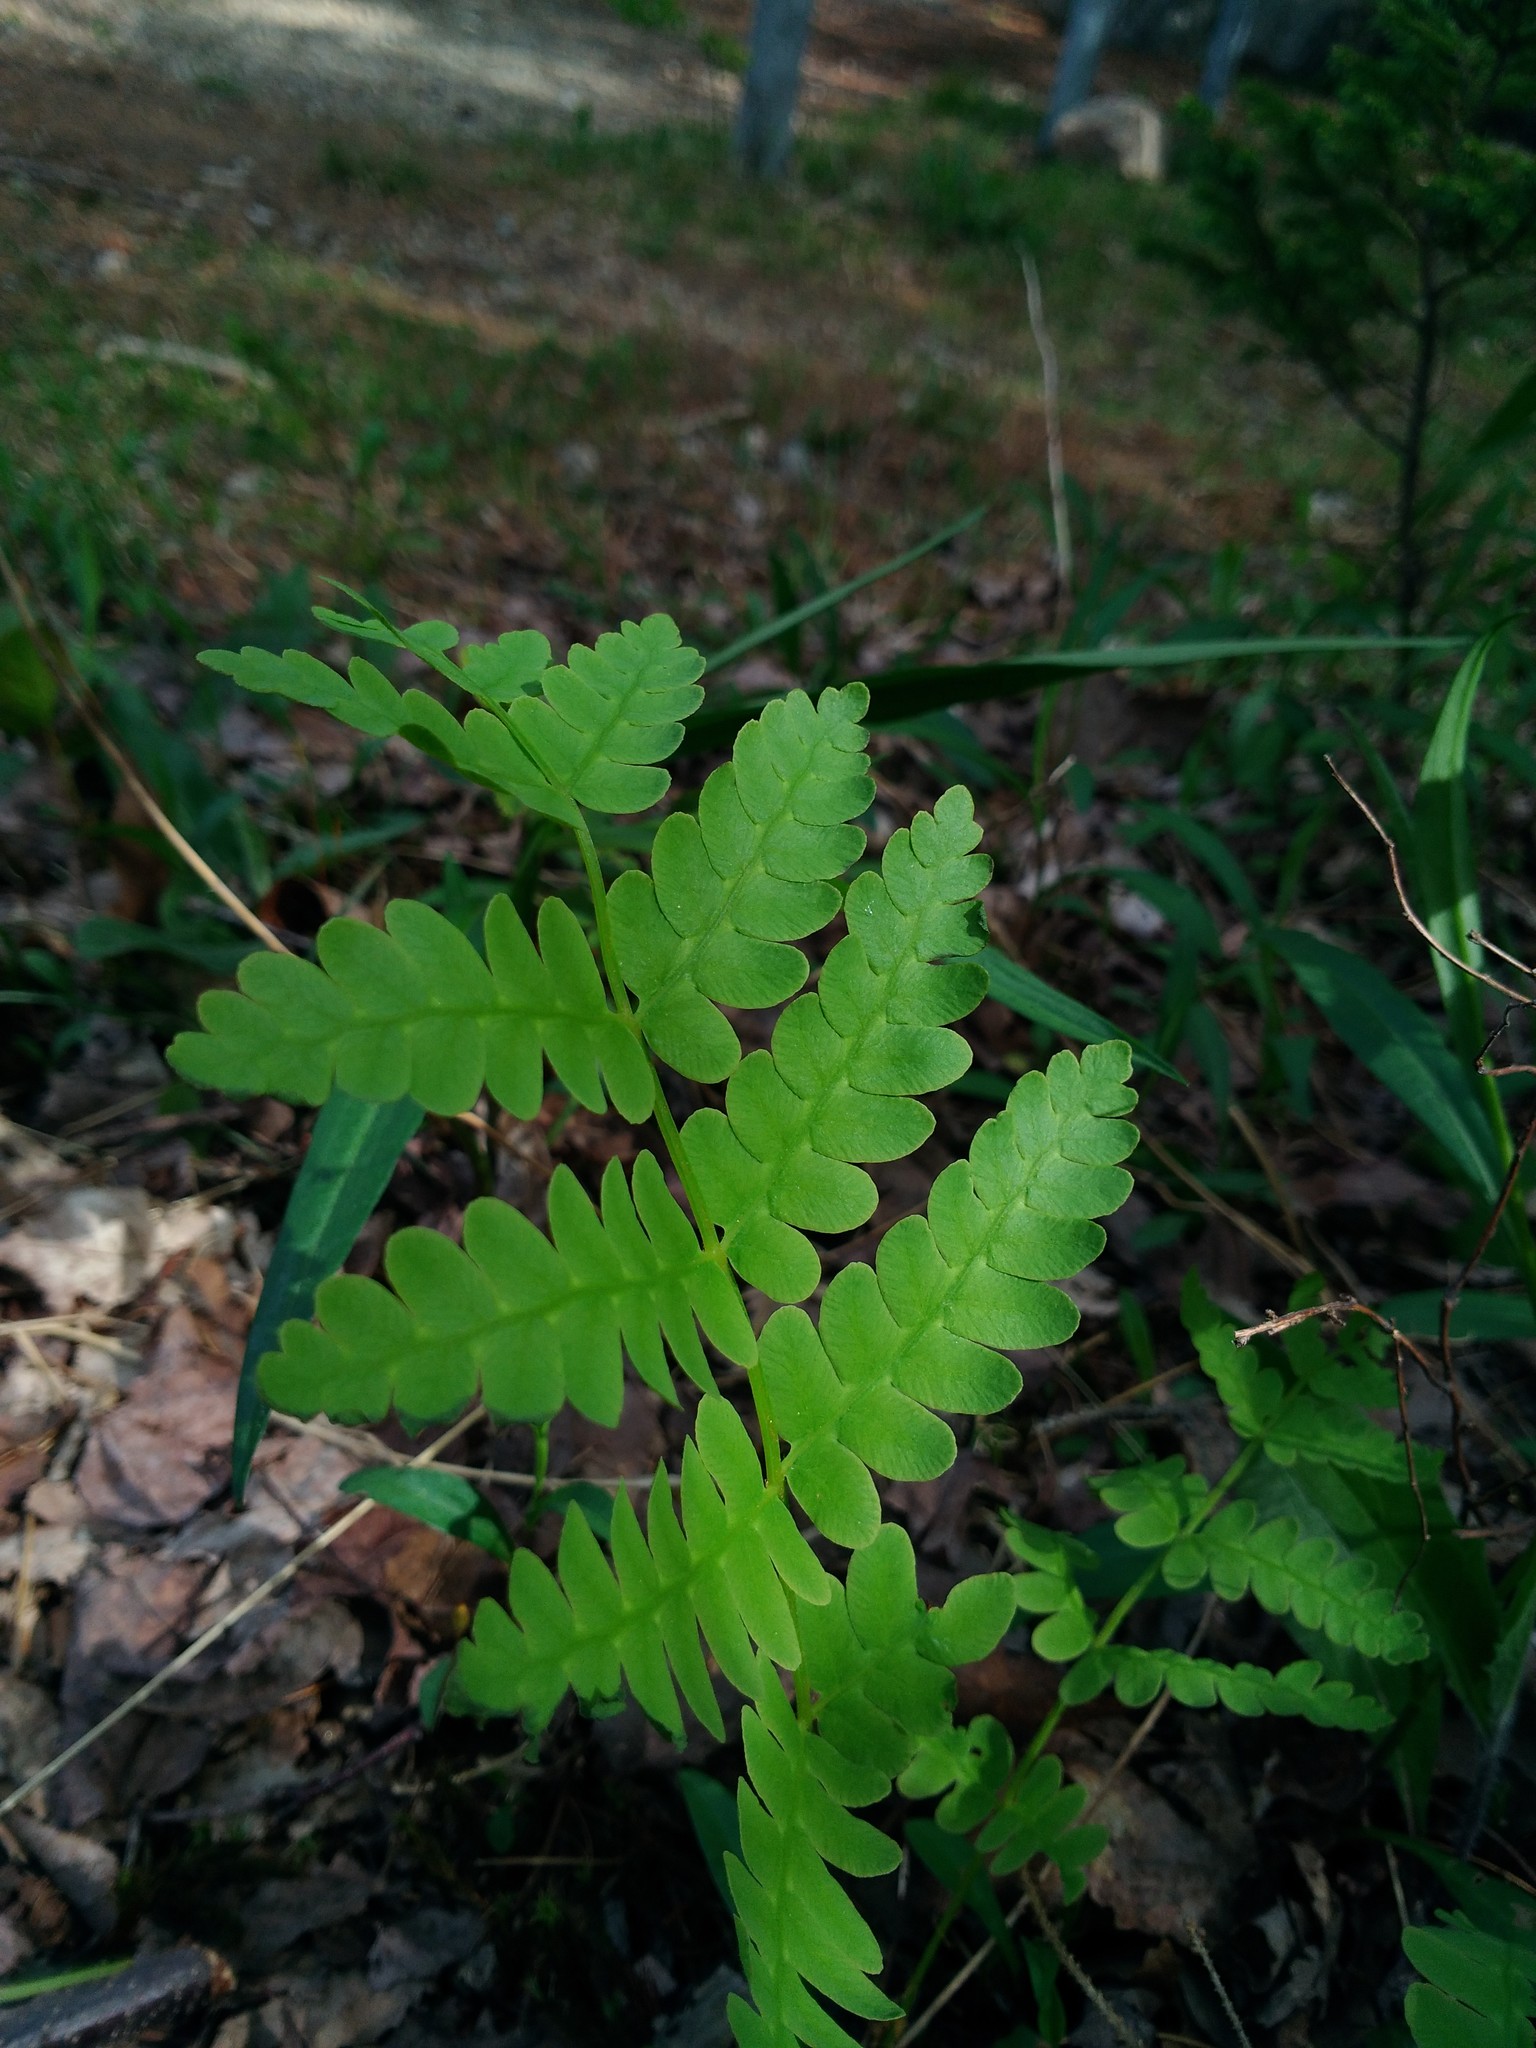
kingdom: Plantae
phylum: Tracheophyta
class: Polypodiopsida
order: Osmundales
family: Osmundaceae
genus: Claytosmunda
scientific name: Claytosmunda claytoniana
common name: Clayton's fern
